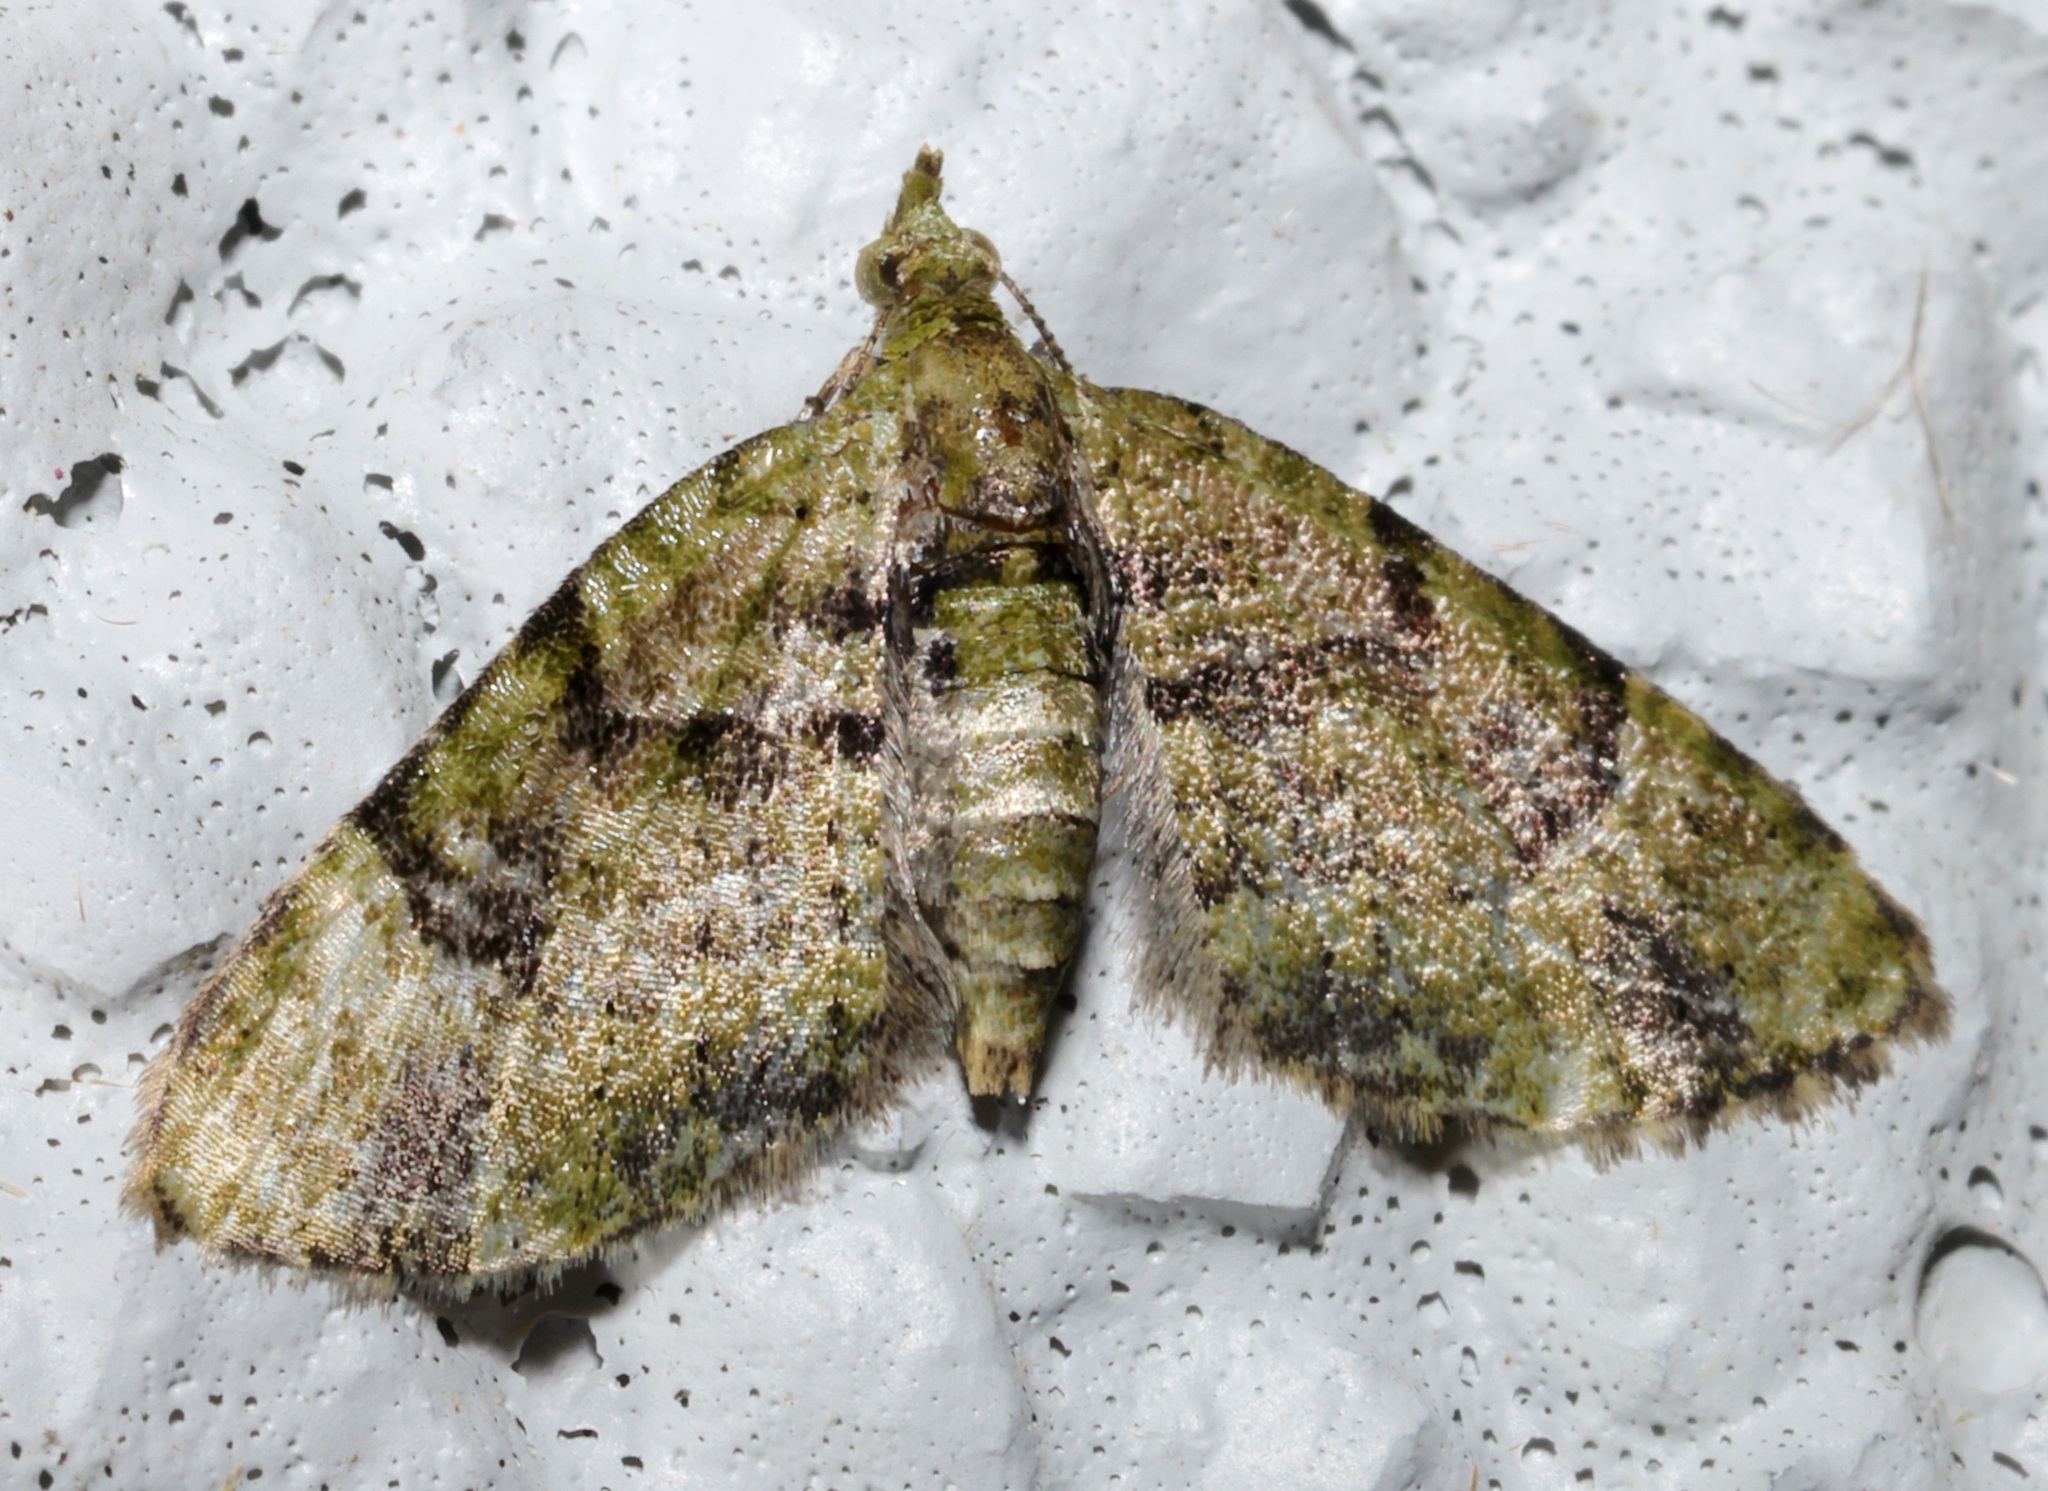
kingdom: Animalia
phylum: Arthropoda
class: Insecta
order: Lepidoptera
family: Geometridae
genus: Chloroclystis
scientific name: Chloroclystis conversa
